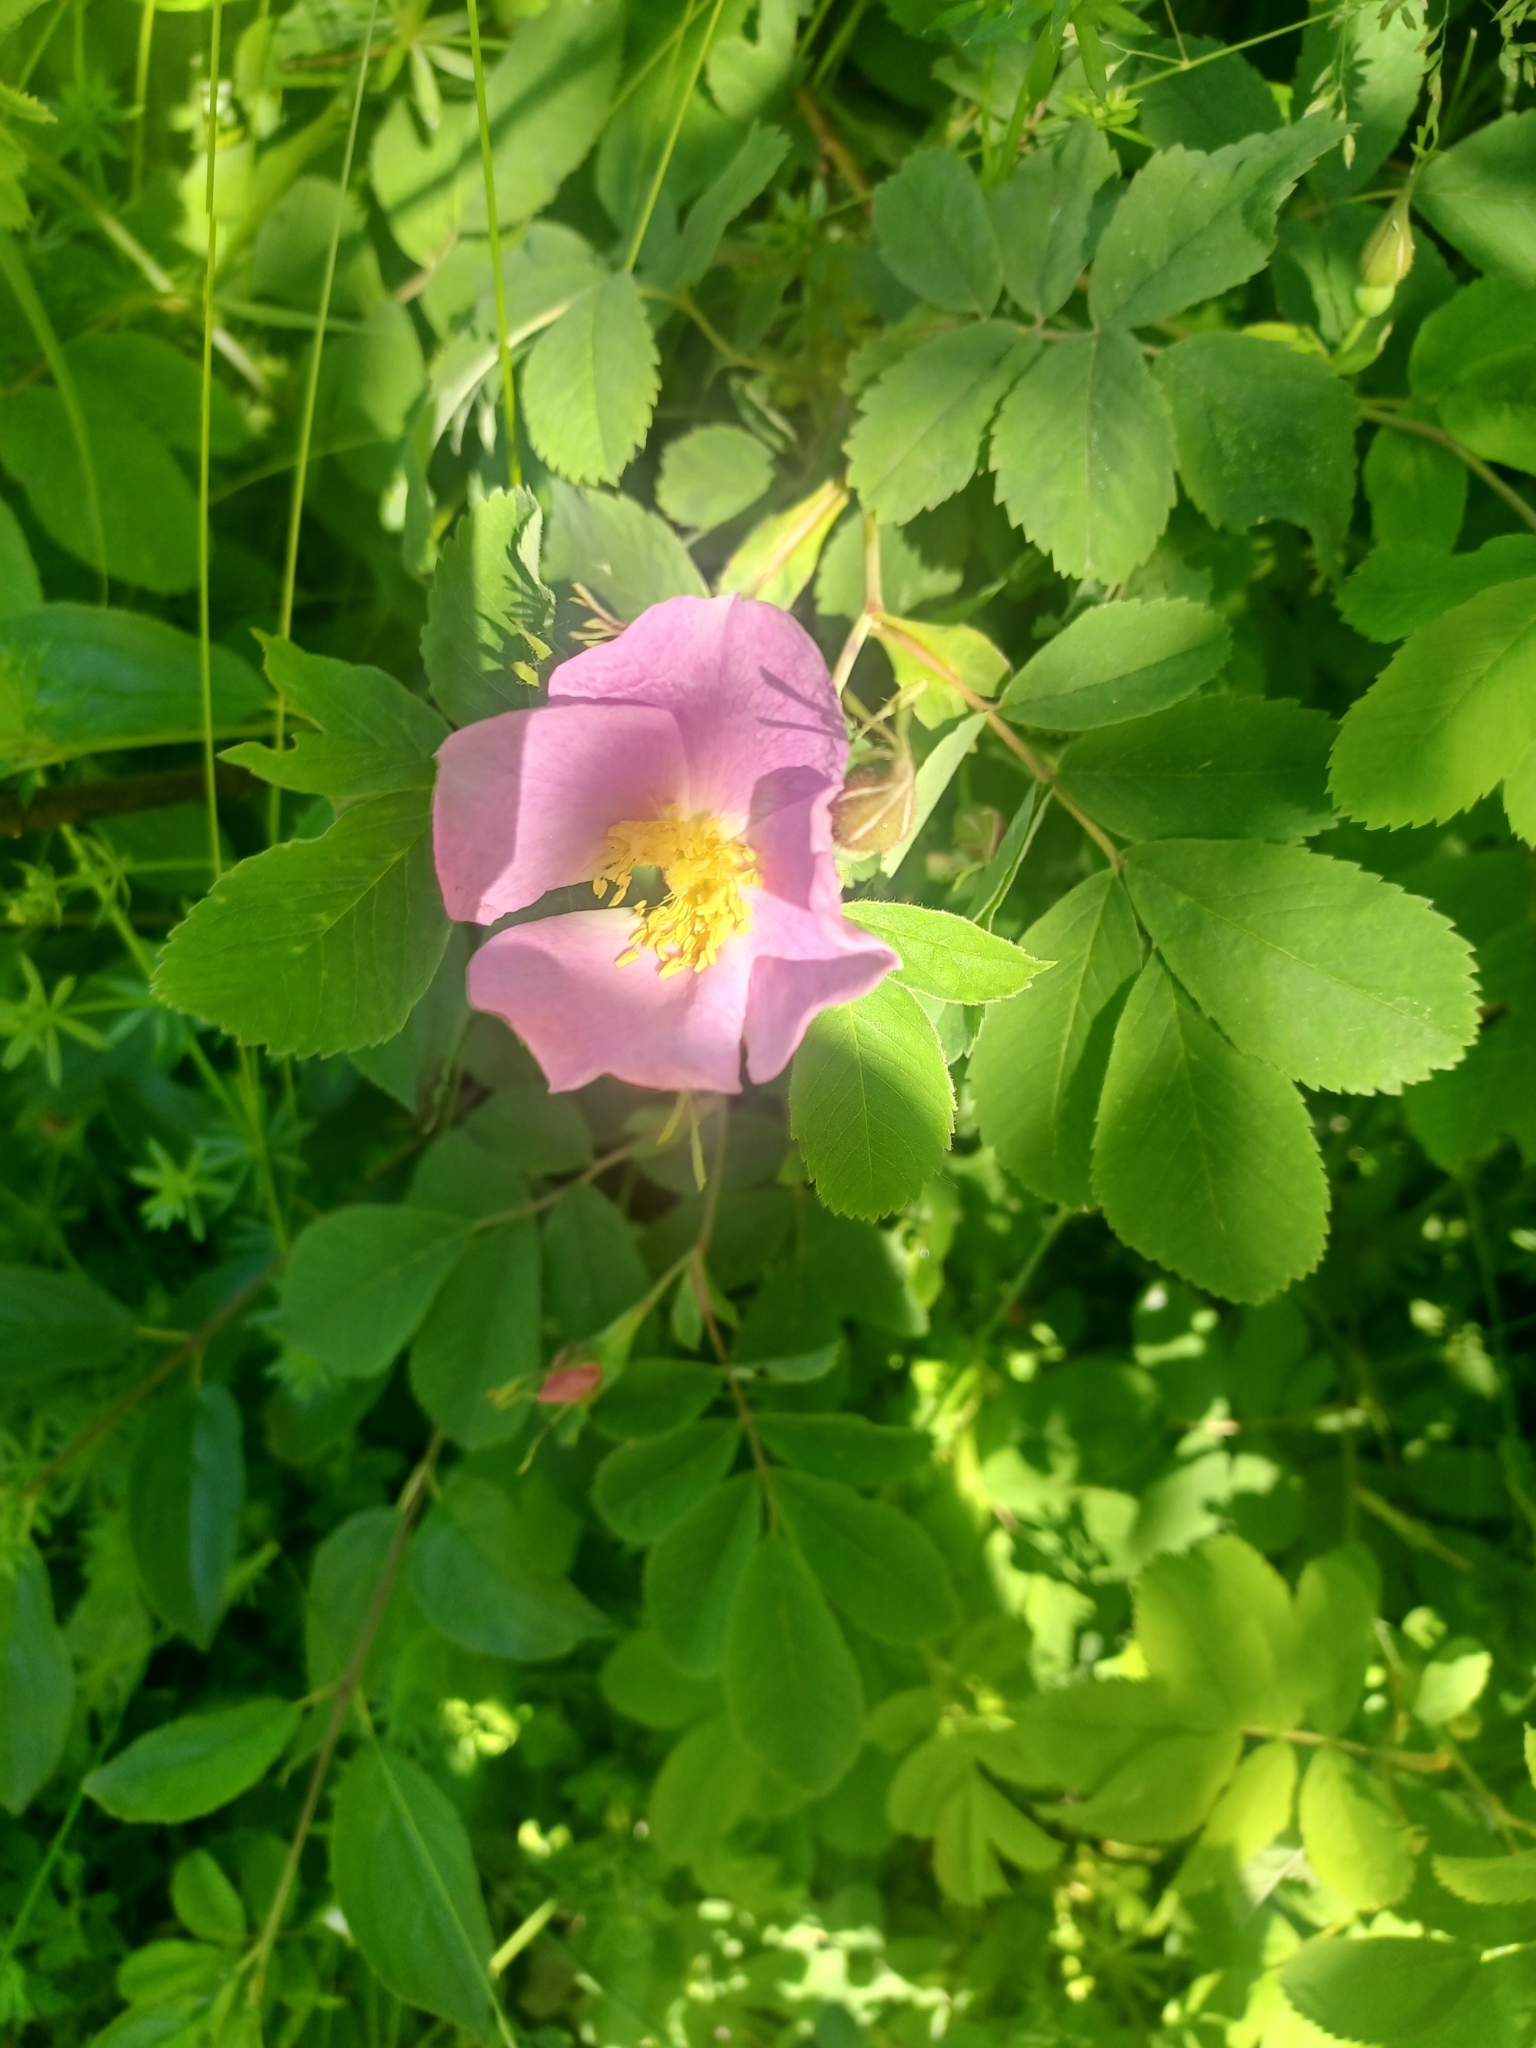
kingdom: Plantae
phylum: Tracheophyta
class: Magnoliopsida
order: Rosales
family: Rosaceae
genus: Rosa
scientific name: Rosa blanda
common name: Smooth rose
